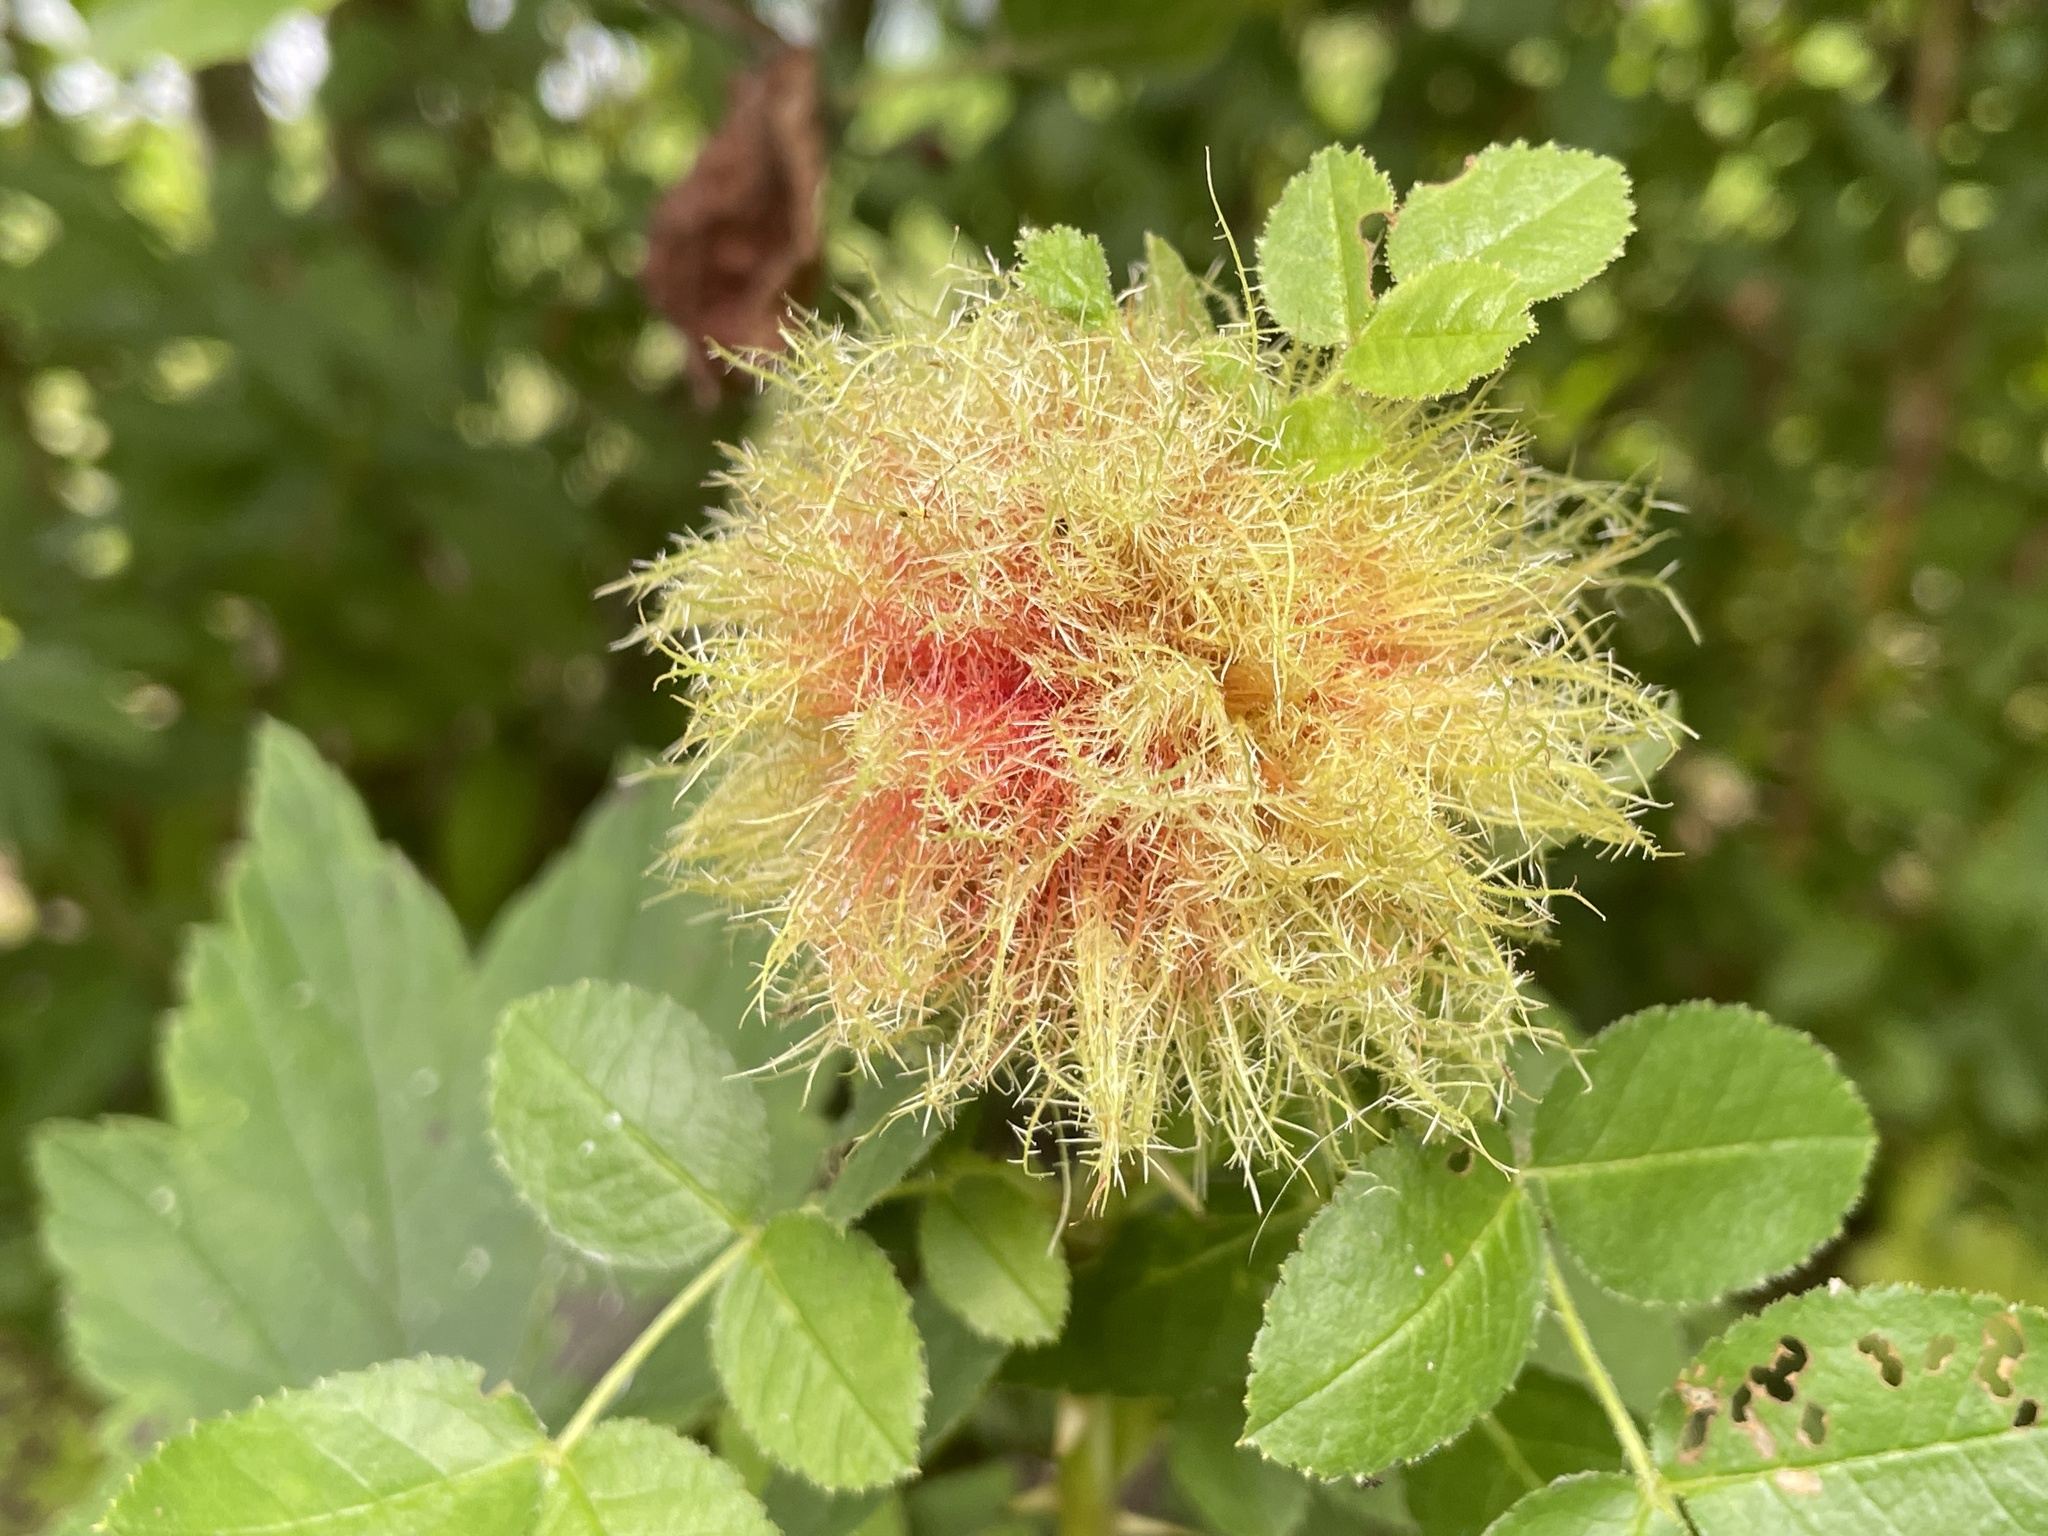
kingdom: Animalia
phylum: Arthropoda
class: Insecta
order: Hymenoptera
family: Cynipidae
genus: Diplolepis
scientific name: Diplolepis rosae
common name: Bedeguar gall
